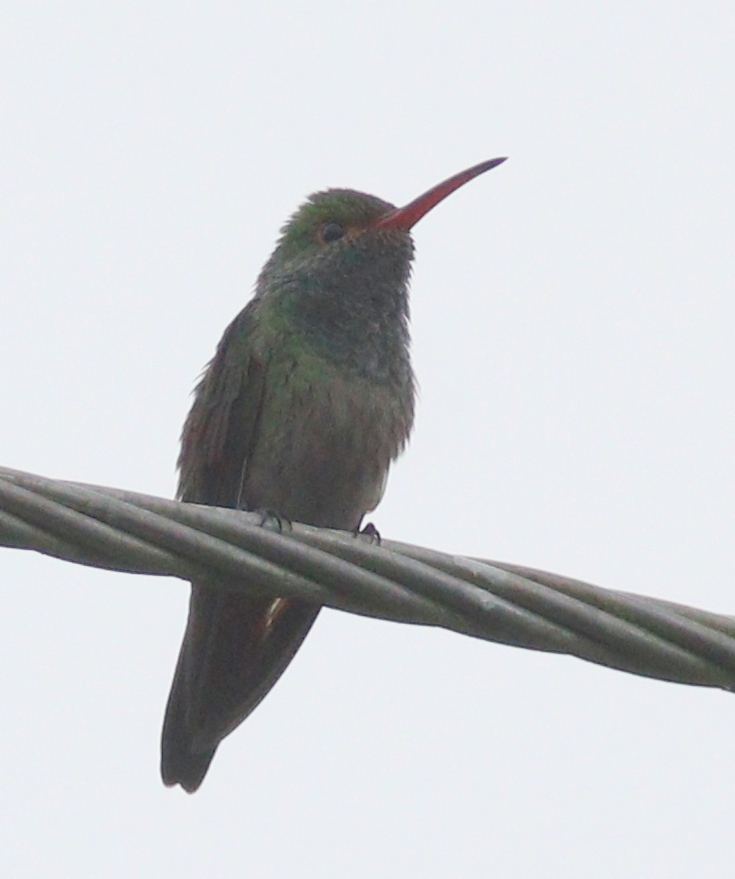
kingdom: Animalia
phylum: Chordata
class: Aves
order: Apodiformes
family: Trochilidae
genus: Amazilia
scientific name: Amazilia tzacatl
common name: Rufous-tailed hummingbird
